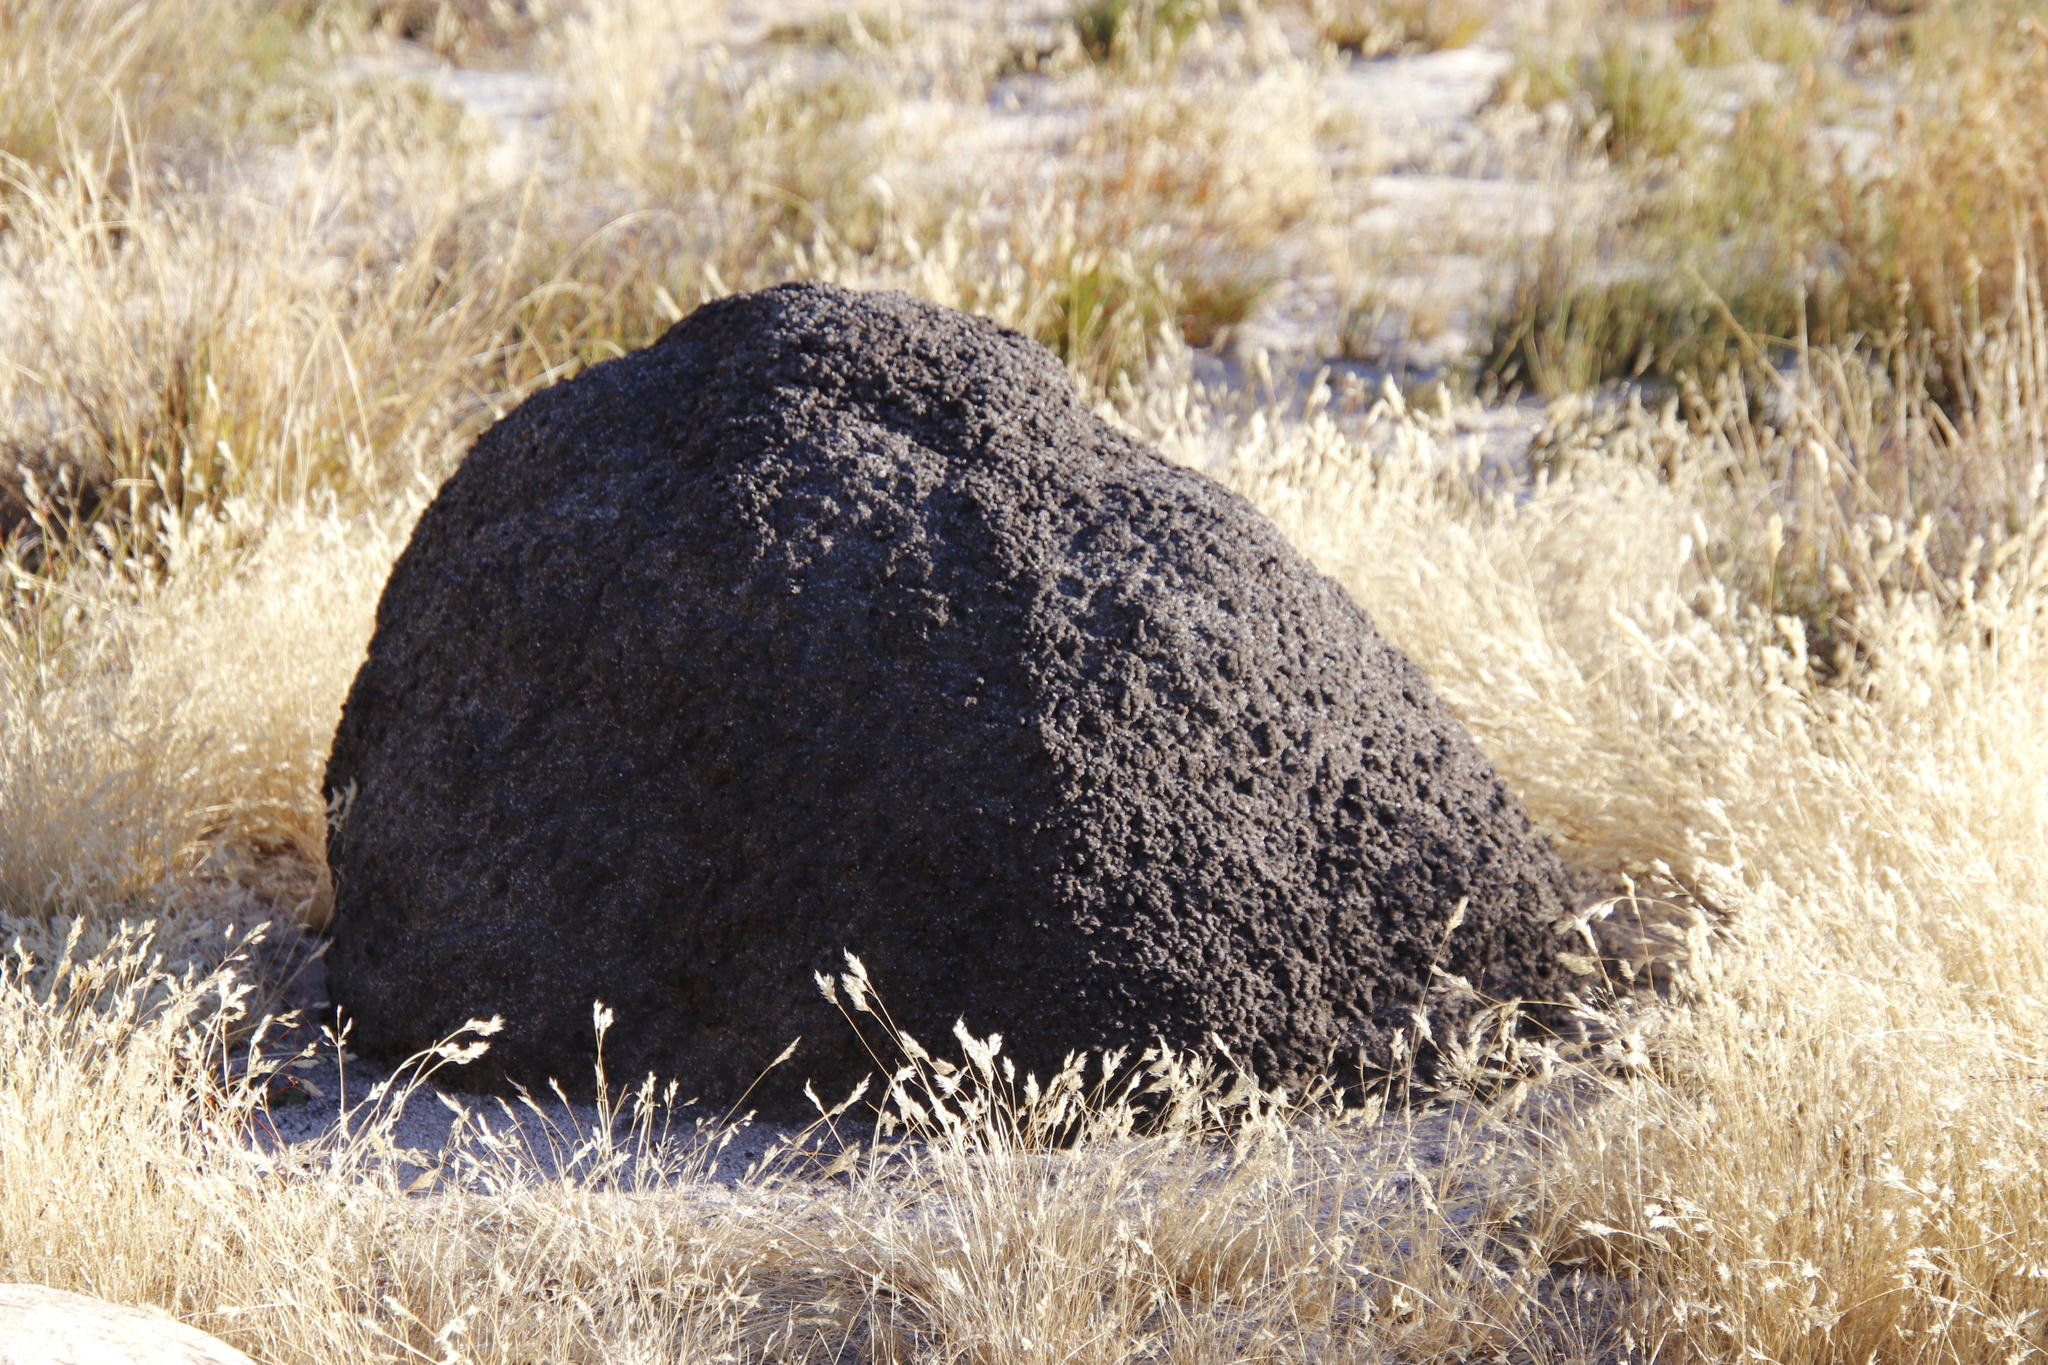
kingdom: Animalia
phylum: Arthropoda
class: Insecta
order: Blattodea
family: Termitidae
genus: Amitermes
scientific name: Amitermes hastatus
